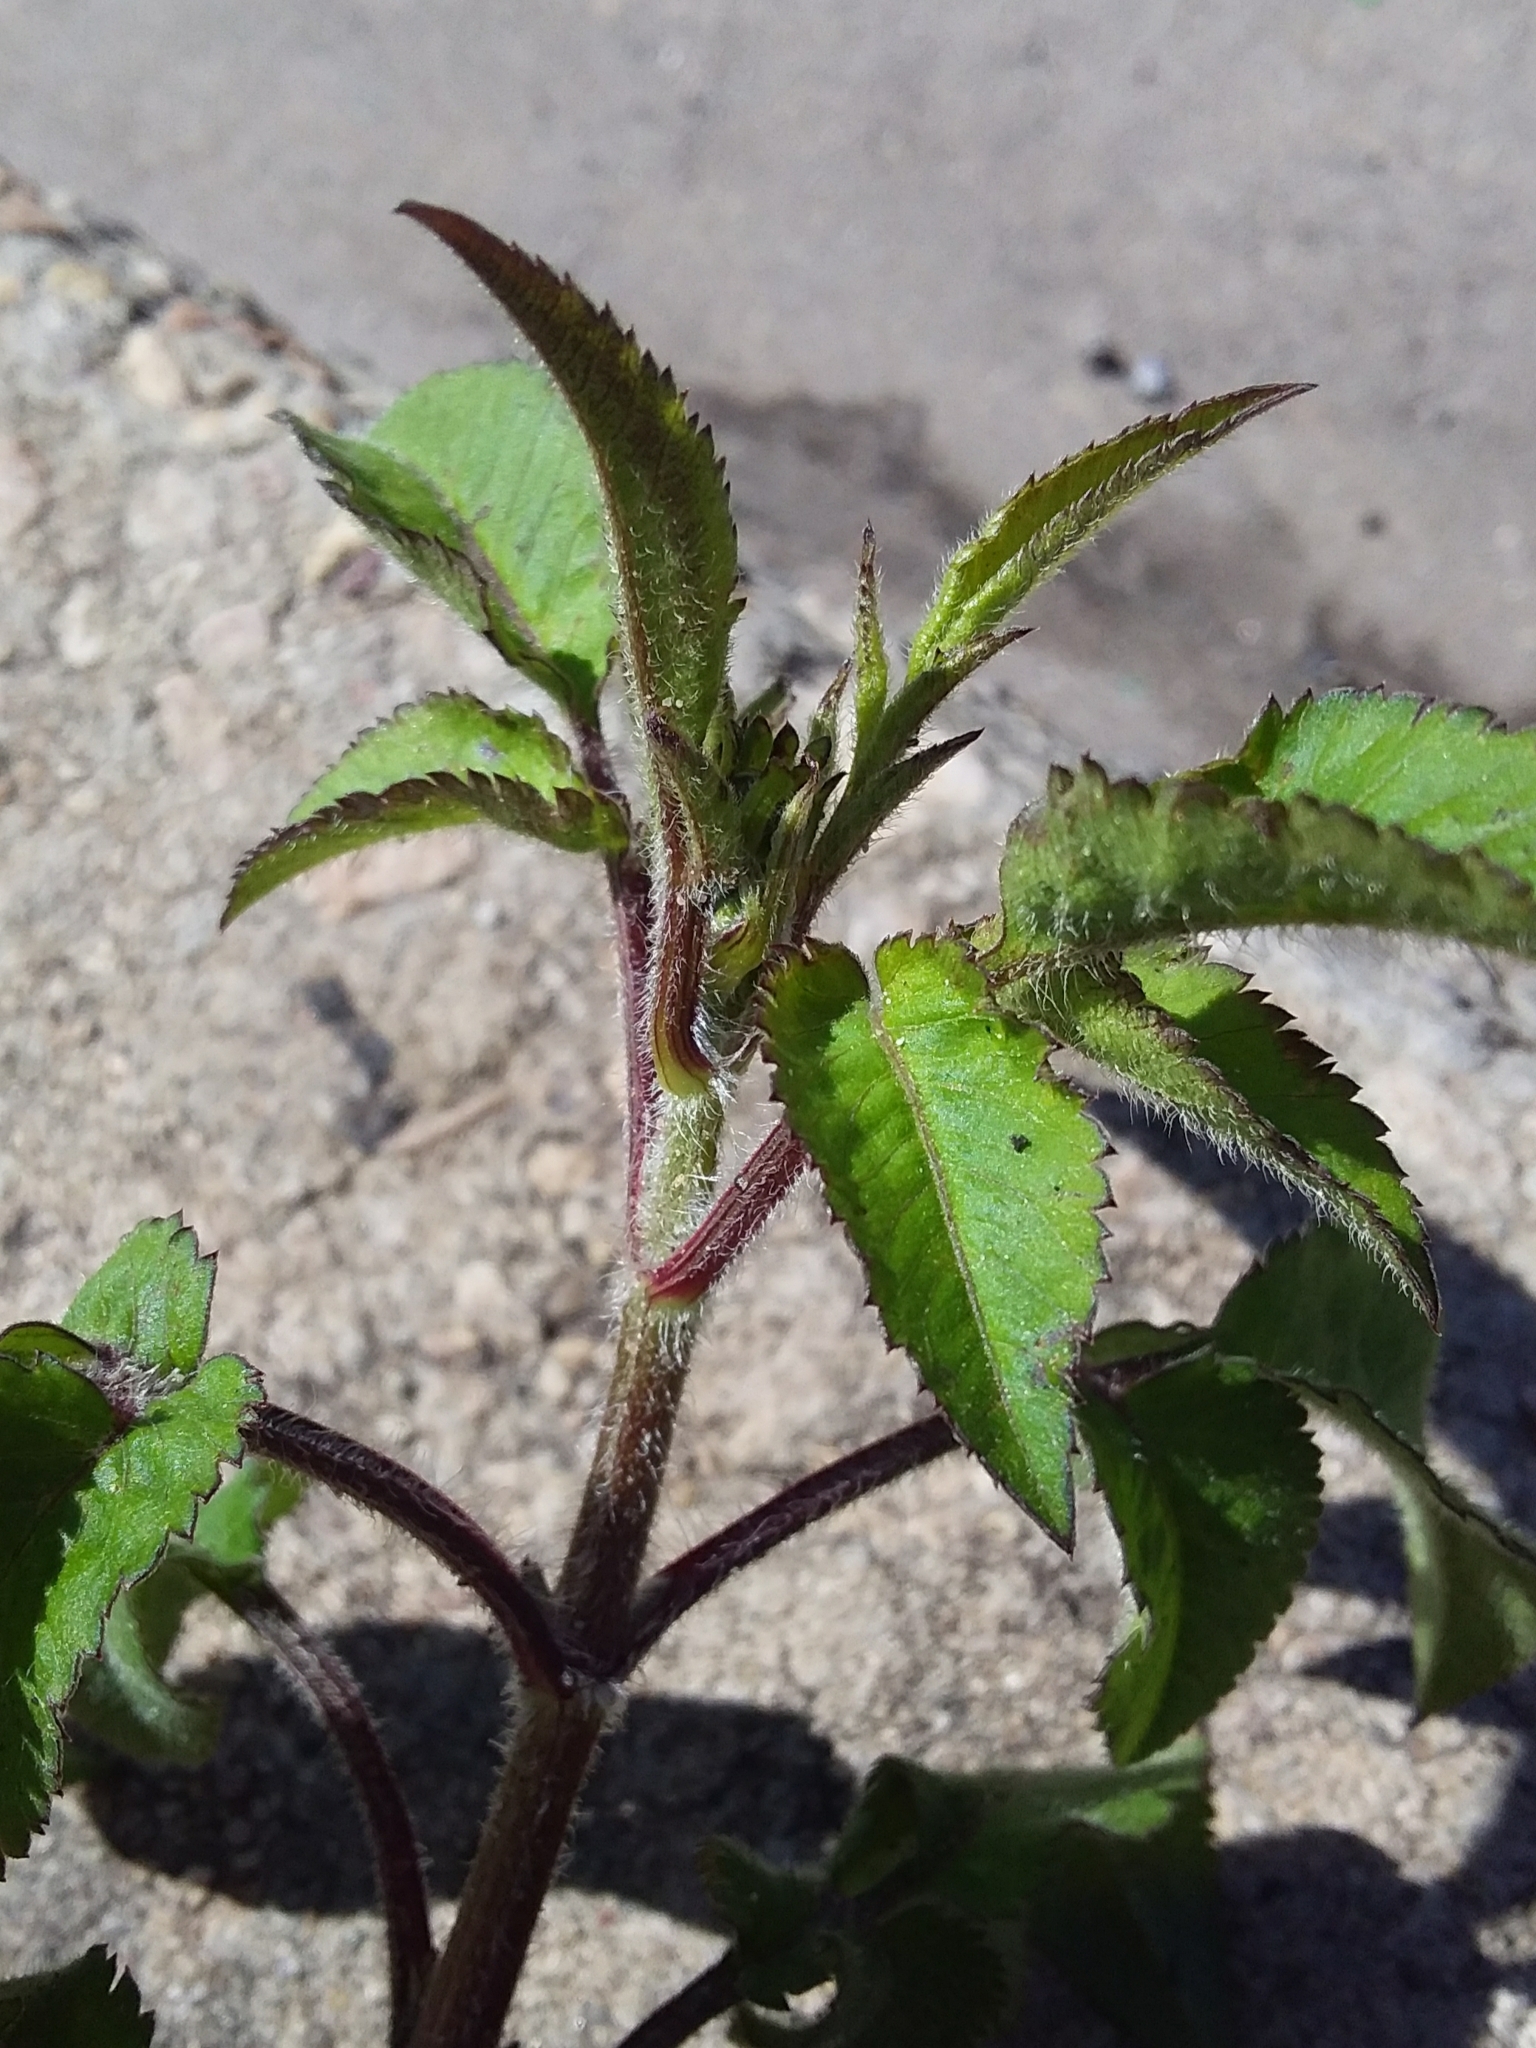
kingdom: Plantae
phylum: Tracheophyta
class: Magnoliopsida
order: Asterales
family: Asteraceae
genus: Bidens
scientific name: Bidens pilosa
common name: Black-jack
